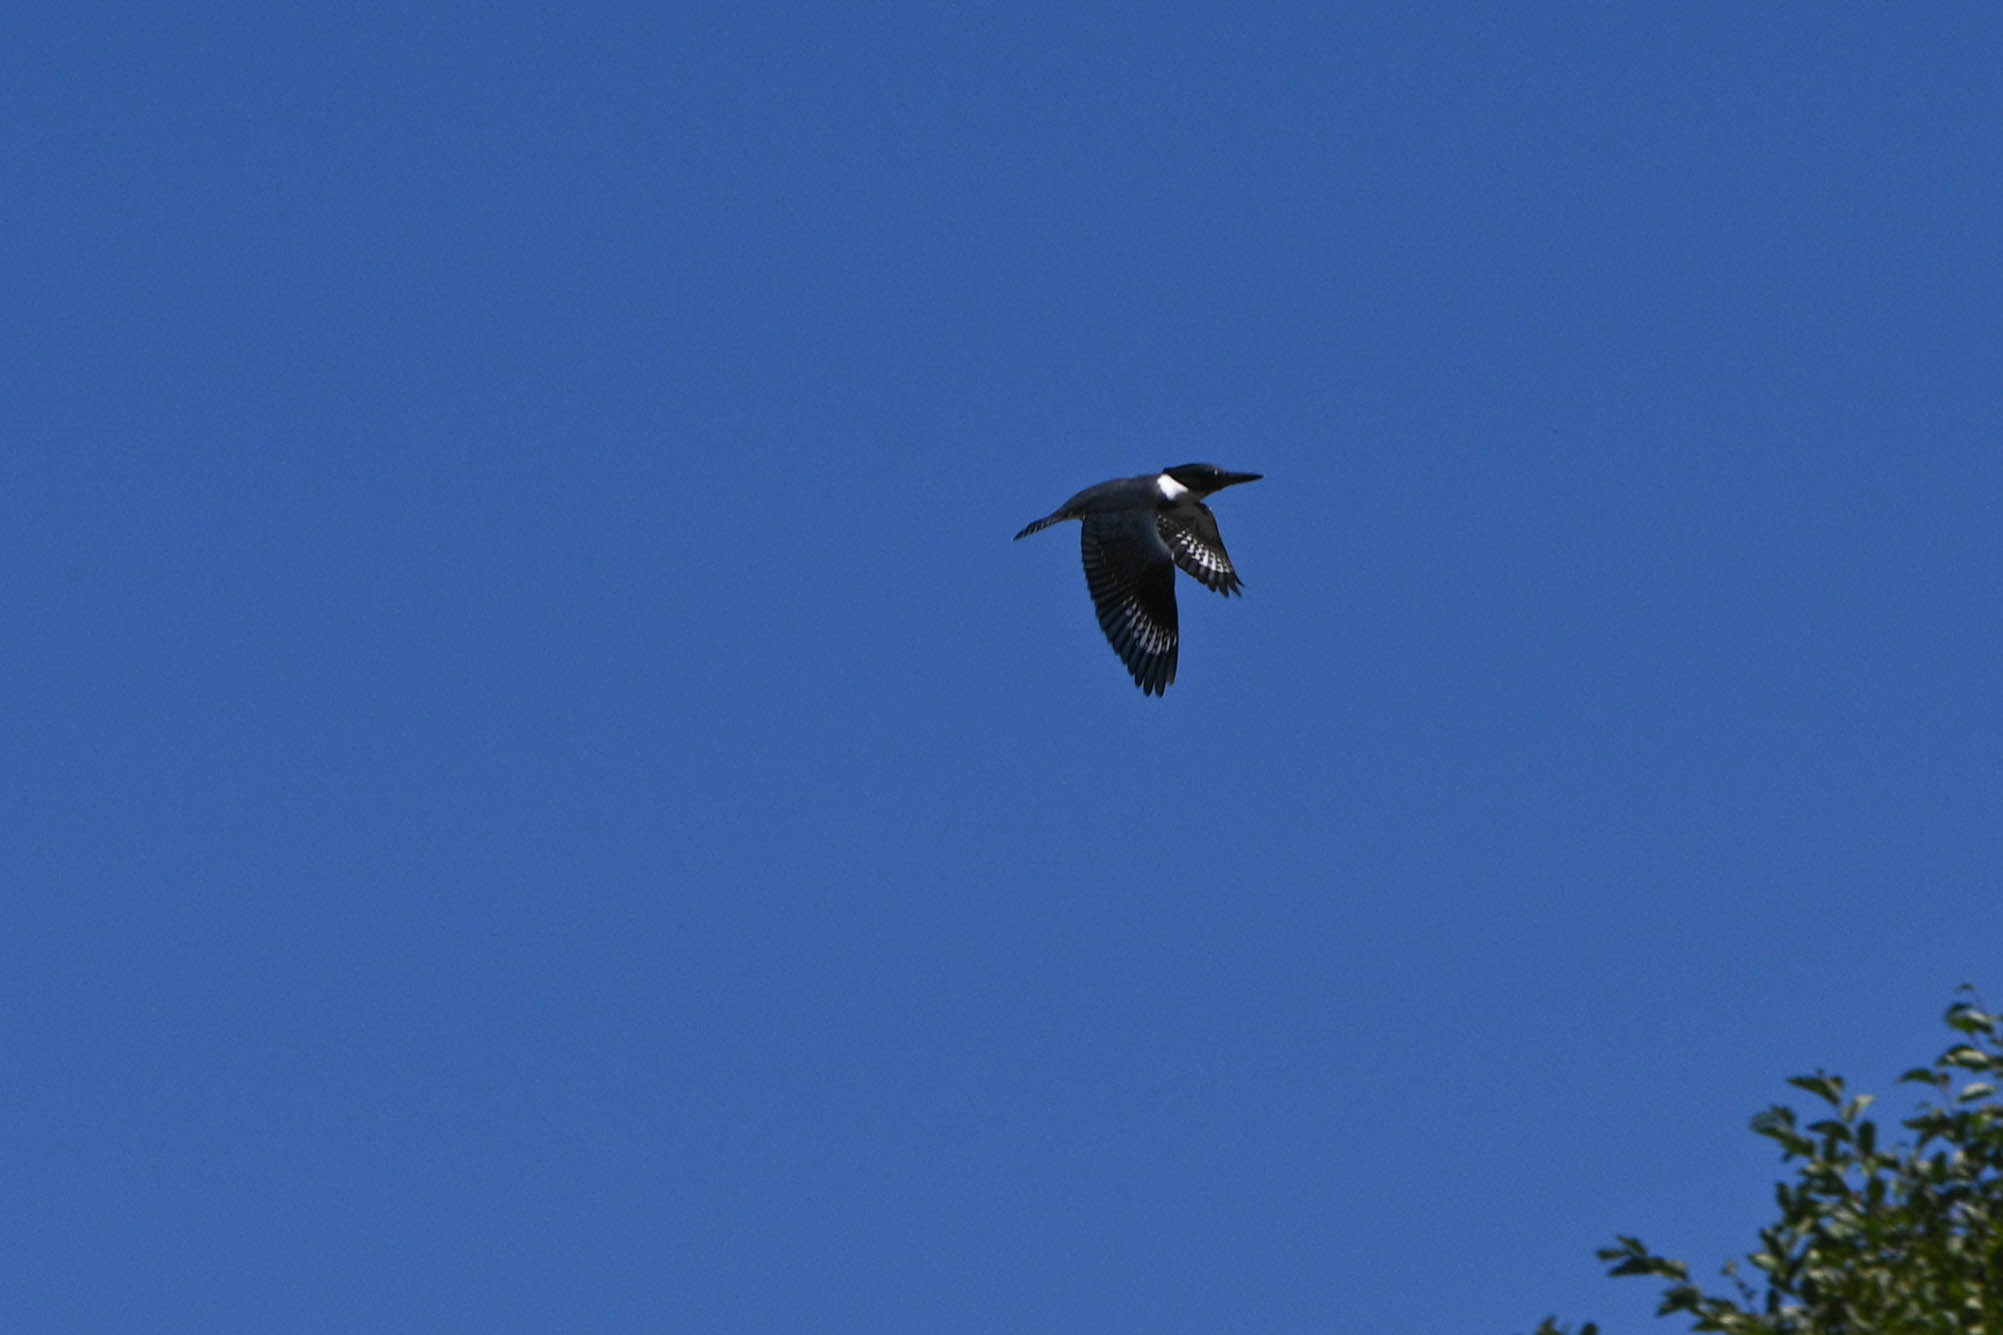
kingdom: Animalia
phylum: Chordata
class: Aves
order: Coraciiformes
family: Alcedinidae
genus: Megaceryle
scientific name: Megaceryle alcyon
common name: Belted kingfisher
